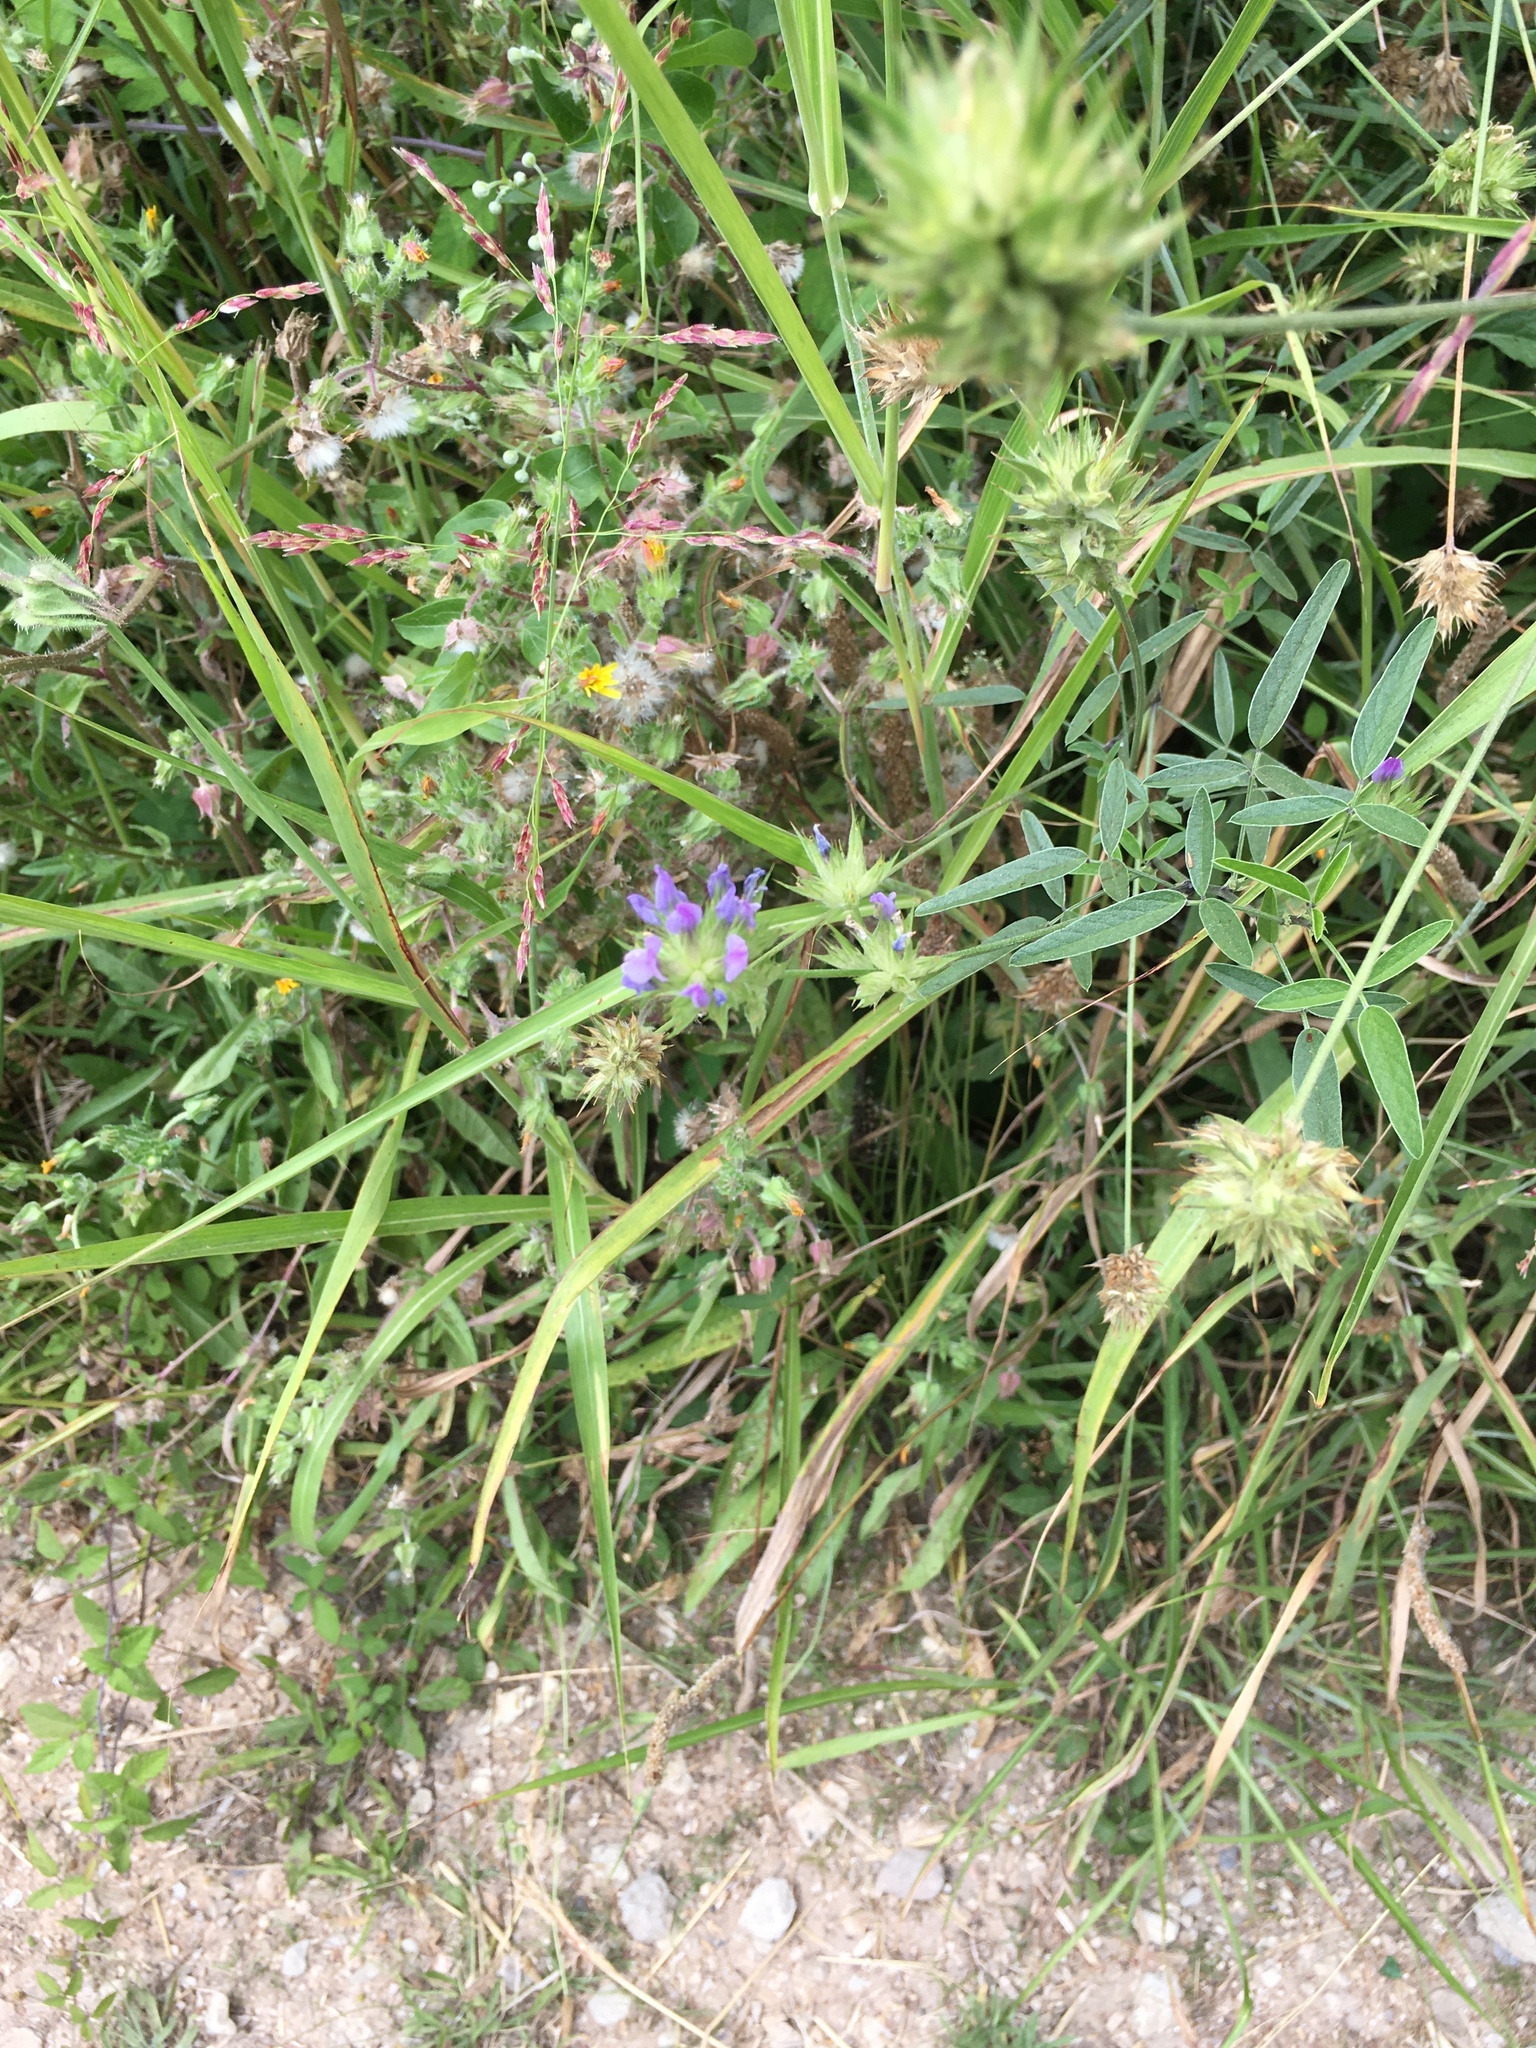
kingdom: Plantae
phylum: Tracheophyta
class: Magnoliopsida
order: Fabales
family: Fabaceae
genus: Bituminaria
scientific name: Bituminaria bituminosa
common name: Arabian pea
